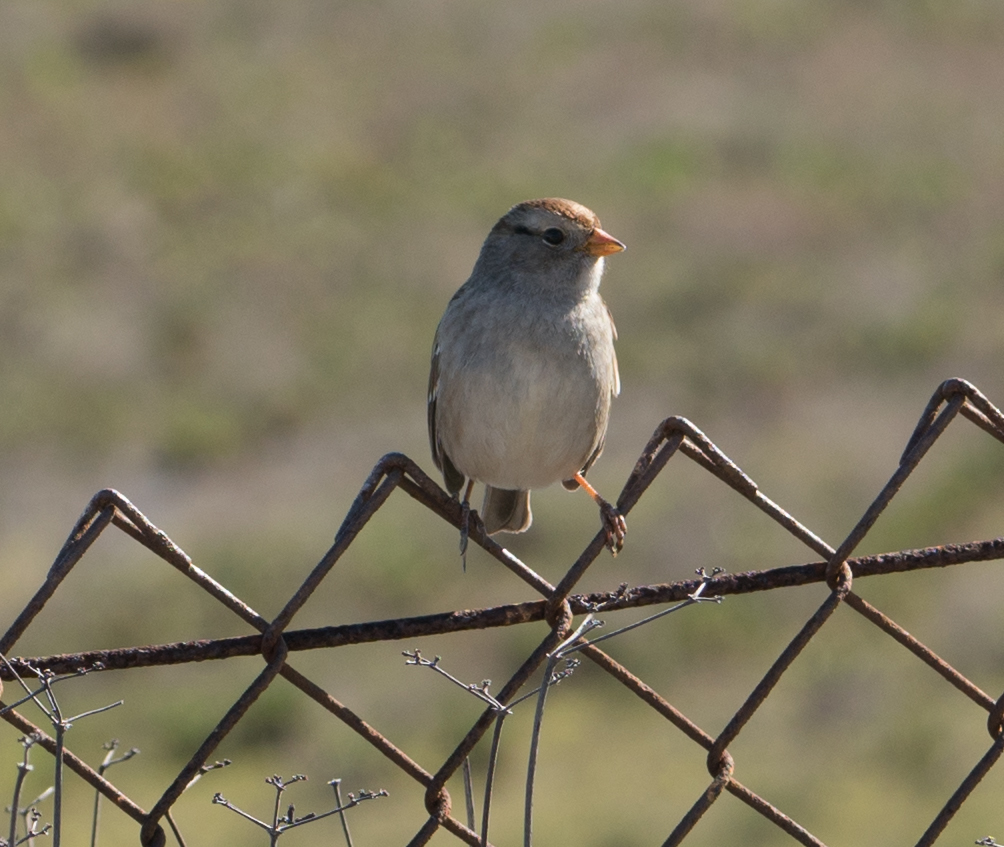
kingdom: Animalia
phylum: Chordata
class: Aves
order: Passeriformes
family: Passerellidae
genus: Zonotrichia
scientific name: Zonotrichia leucophrys
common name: White-crowned sparrow
